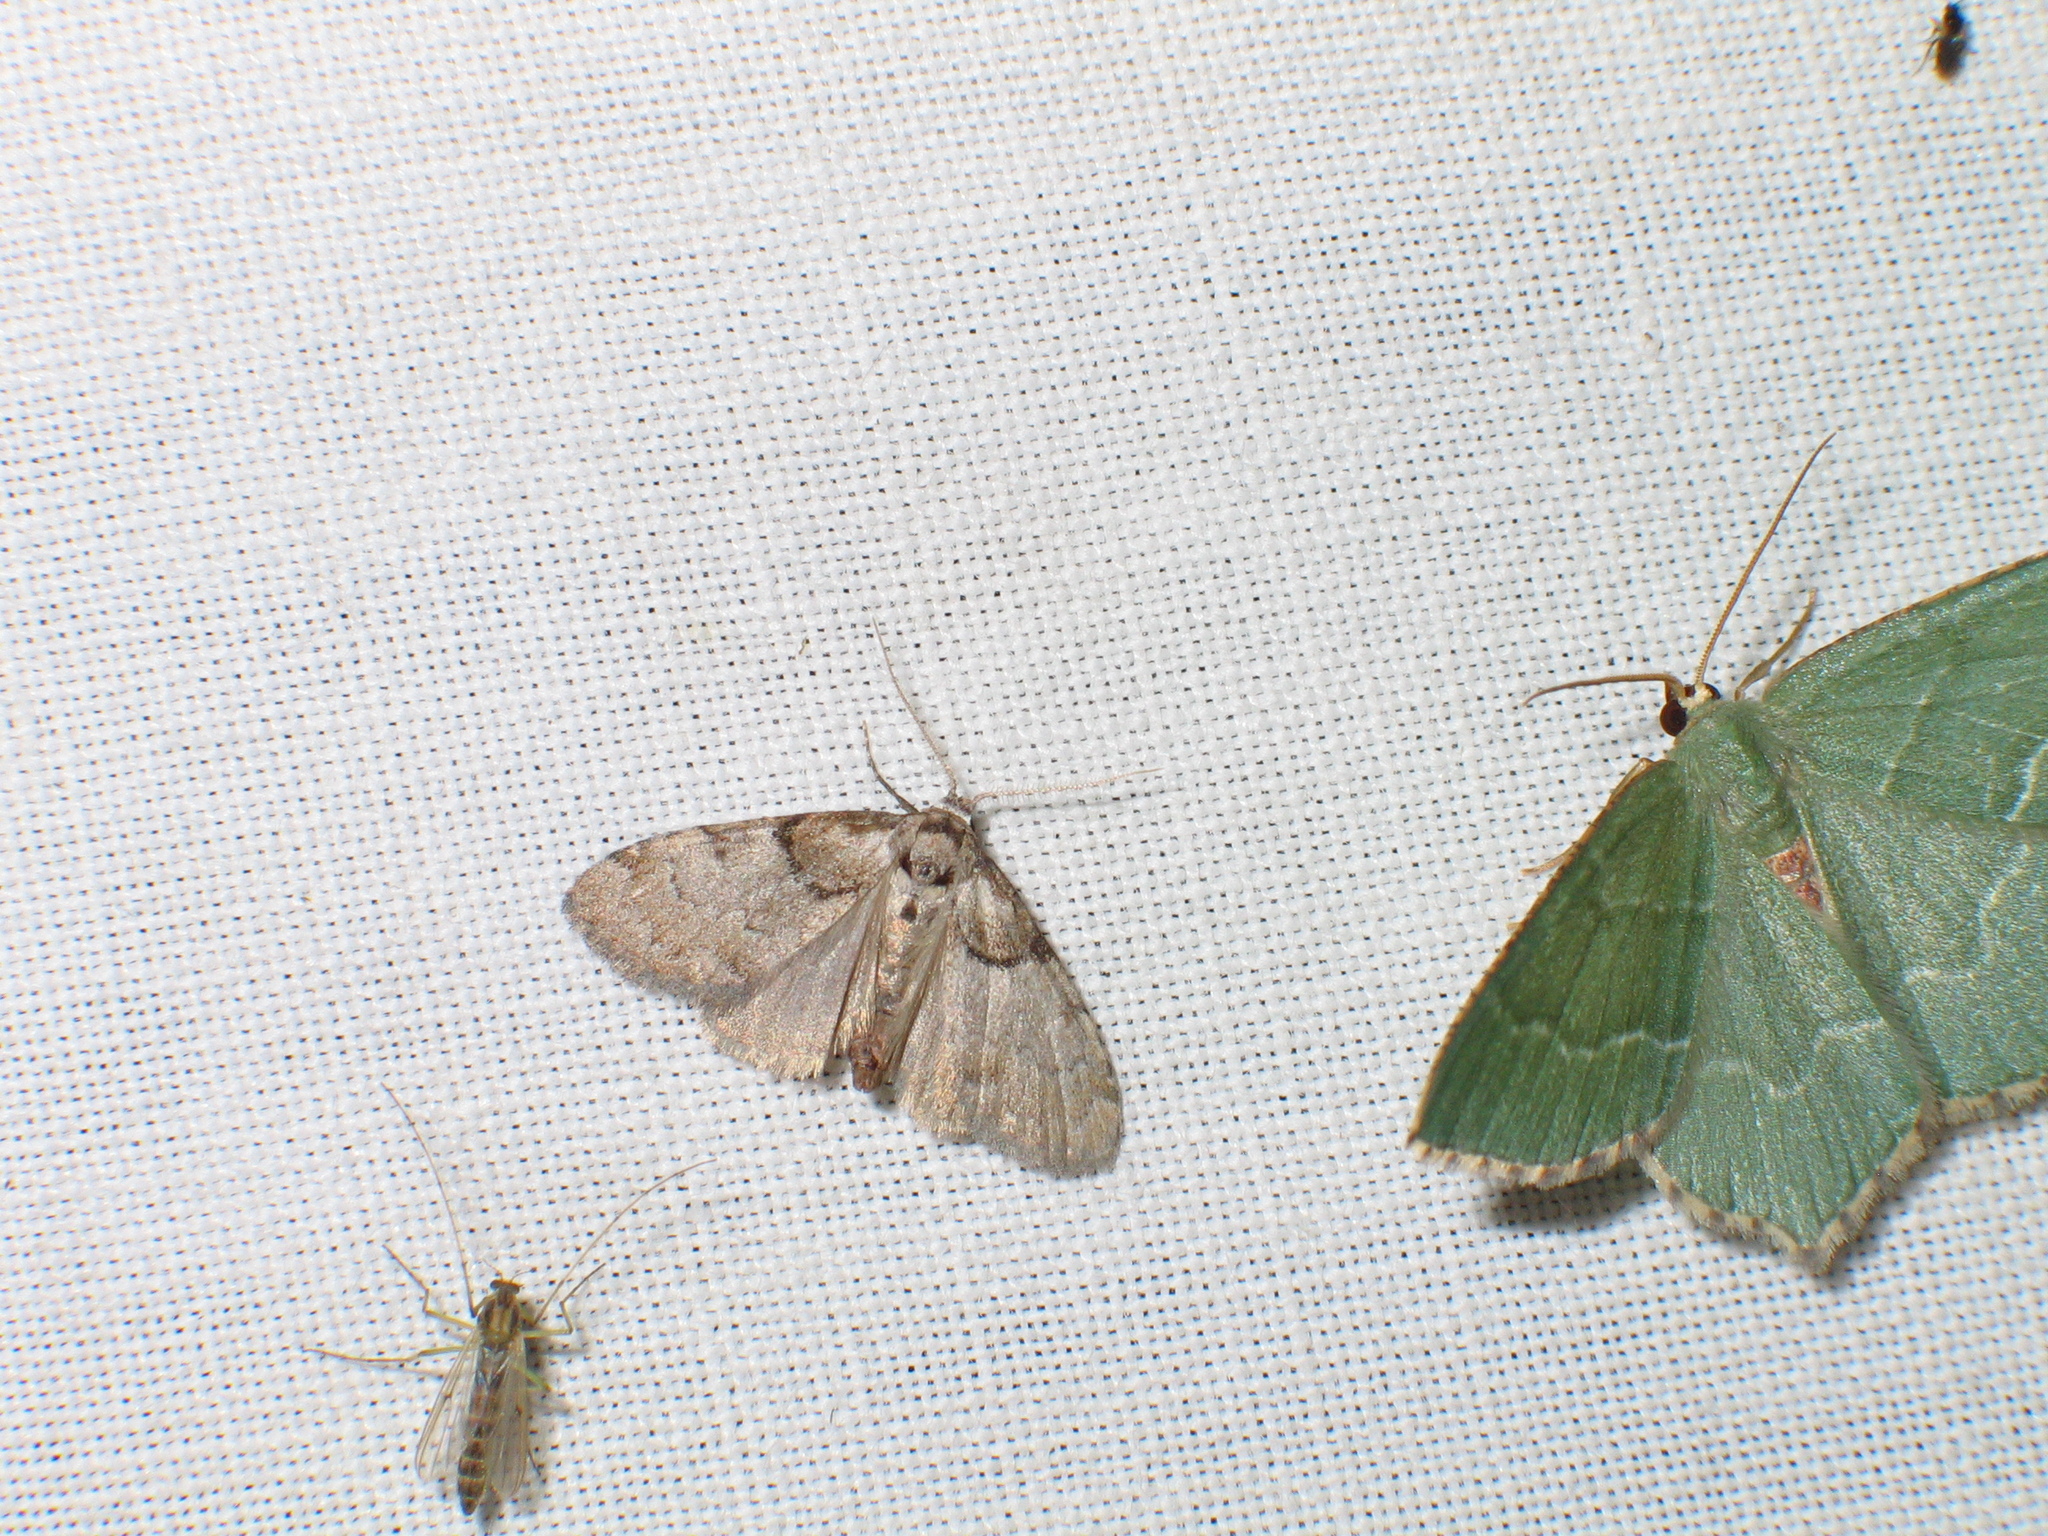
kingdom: Animalia
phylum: Arthropoda
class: Insecta
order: Lepidoptera
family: Nolidae
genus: Nola
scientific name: Nola cucullatella
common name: Short-cloaked moth
